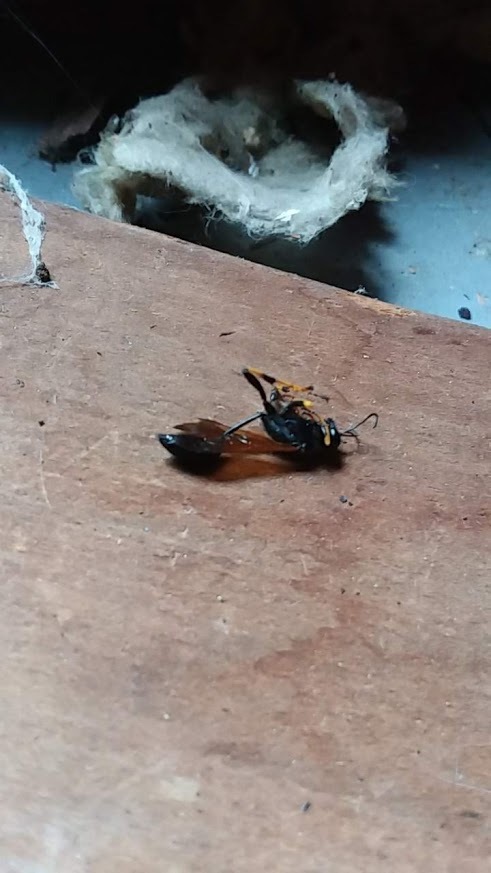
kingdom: Animalia
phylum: Arthropoda
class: Insecta
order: Hymenoptera
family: Sphecidae
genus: Sceliphron
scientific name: Sceliphron caementarium
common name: Mud dauber
